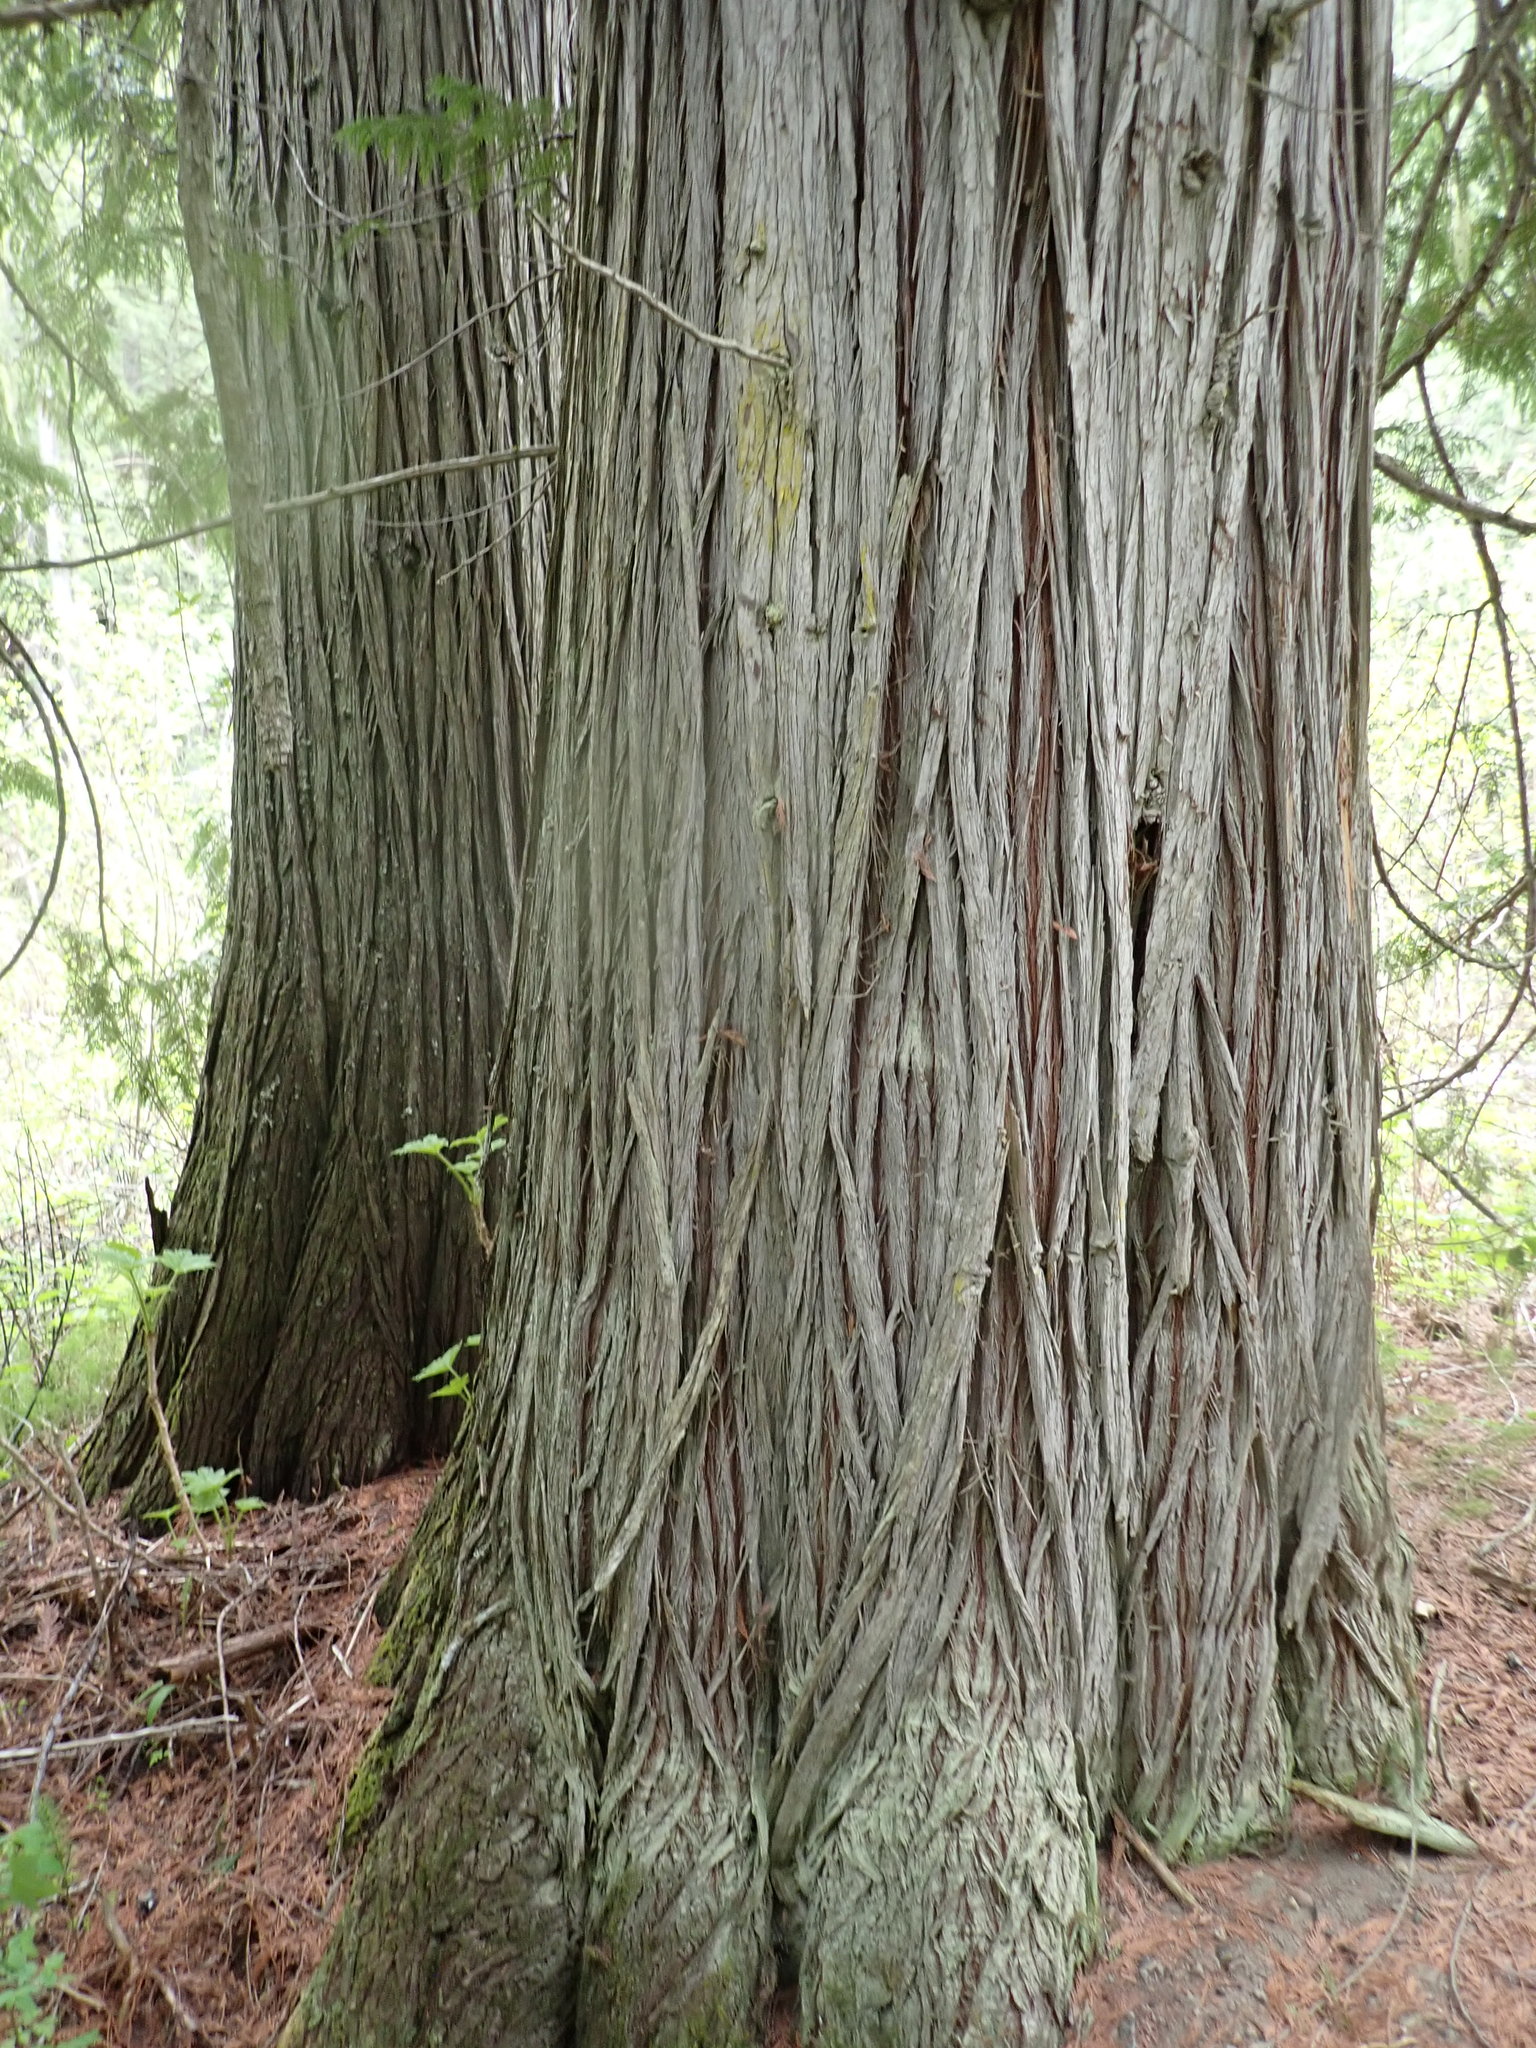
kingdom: Plantae
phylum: Tracheophyta
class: Pinopsida
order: Pinales
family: Cupressaceae
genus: Thuja
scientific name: Thuja plicata
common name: Western red-cedar
